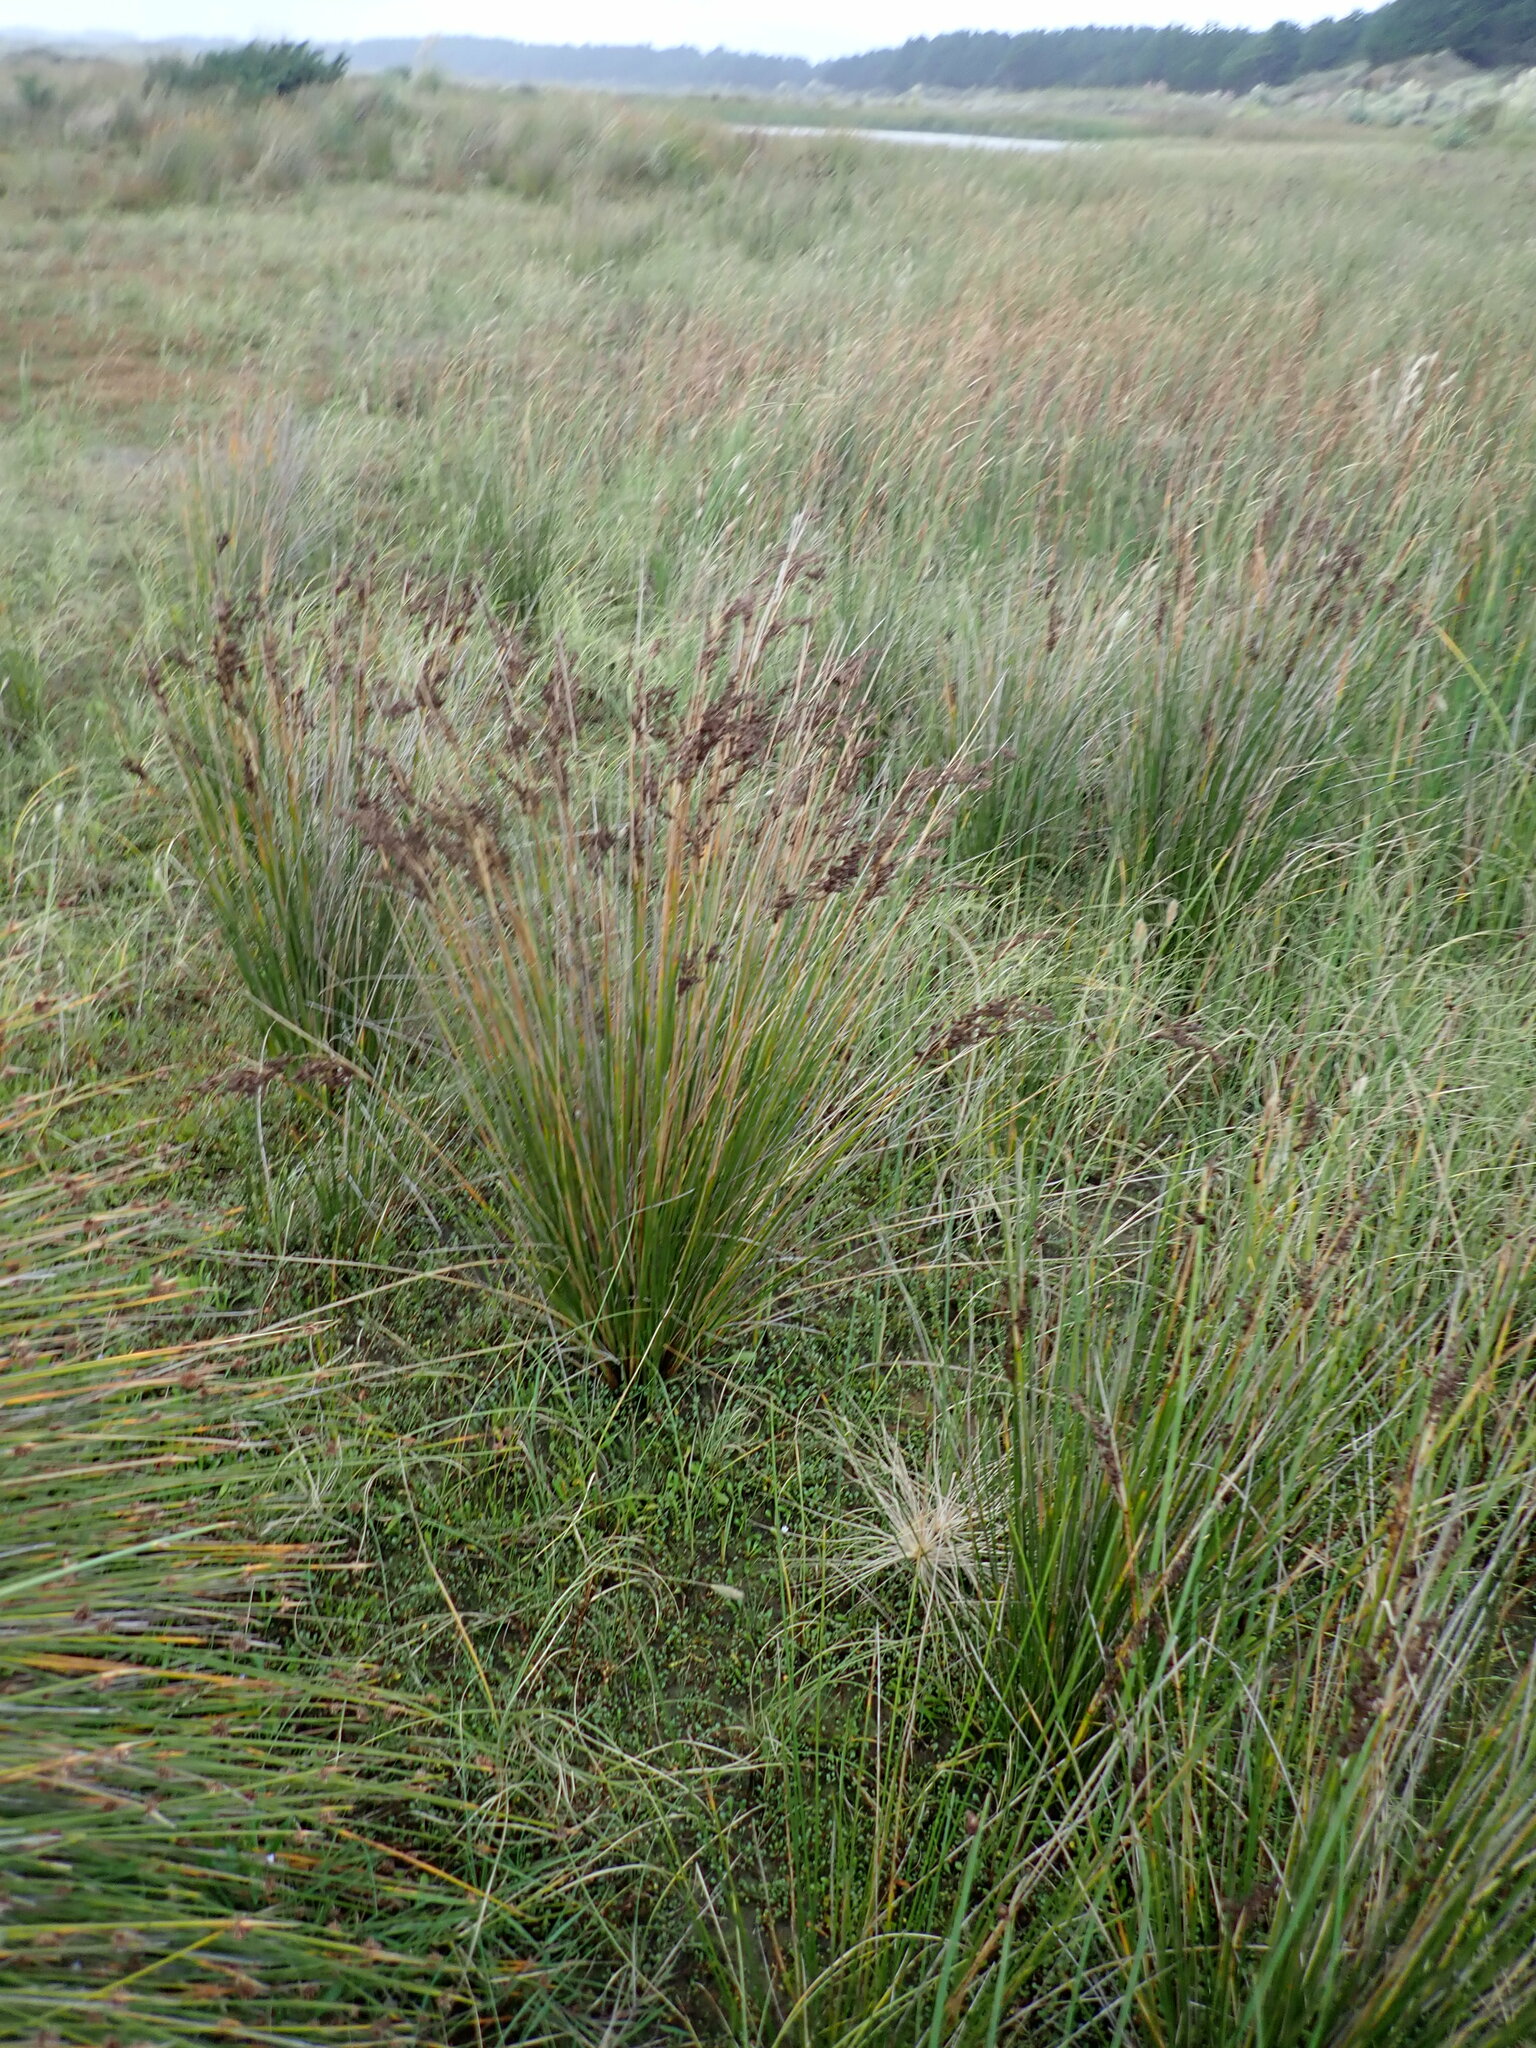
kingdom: Plantae
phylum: Tracheophyta
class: Liliopsida
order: Poales
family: Juncaceae
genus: Juncus
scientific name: Juncus kraussii
